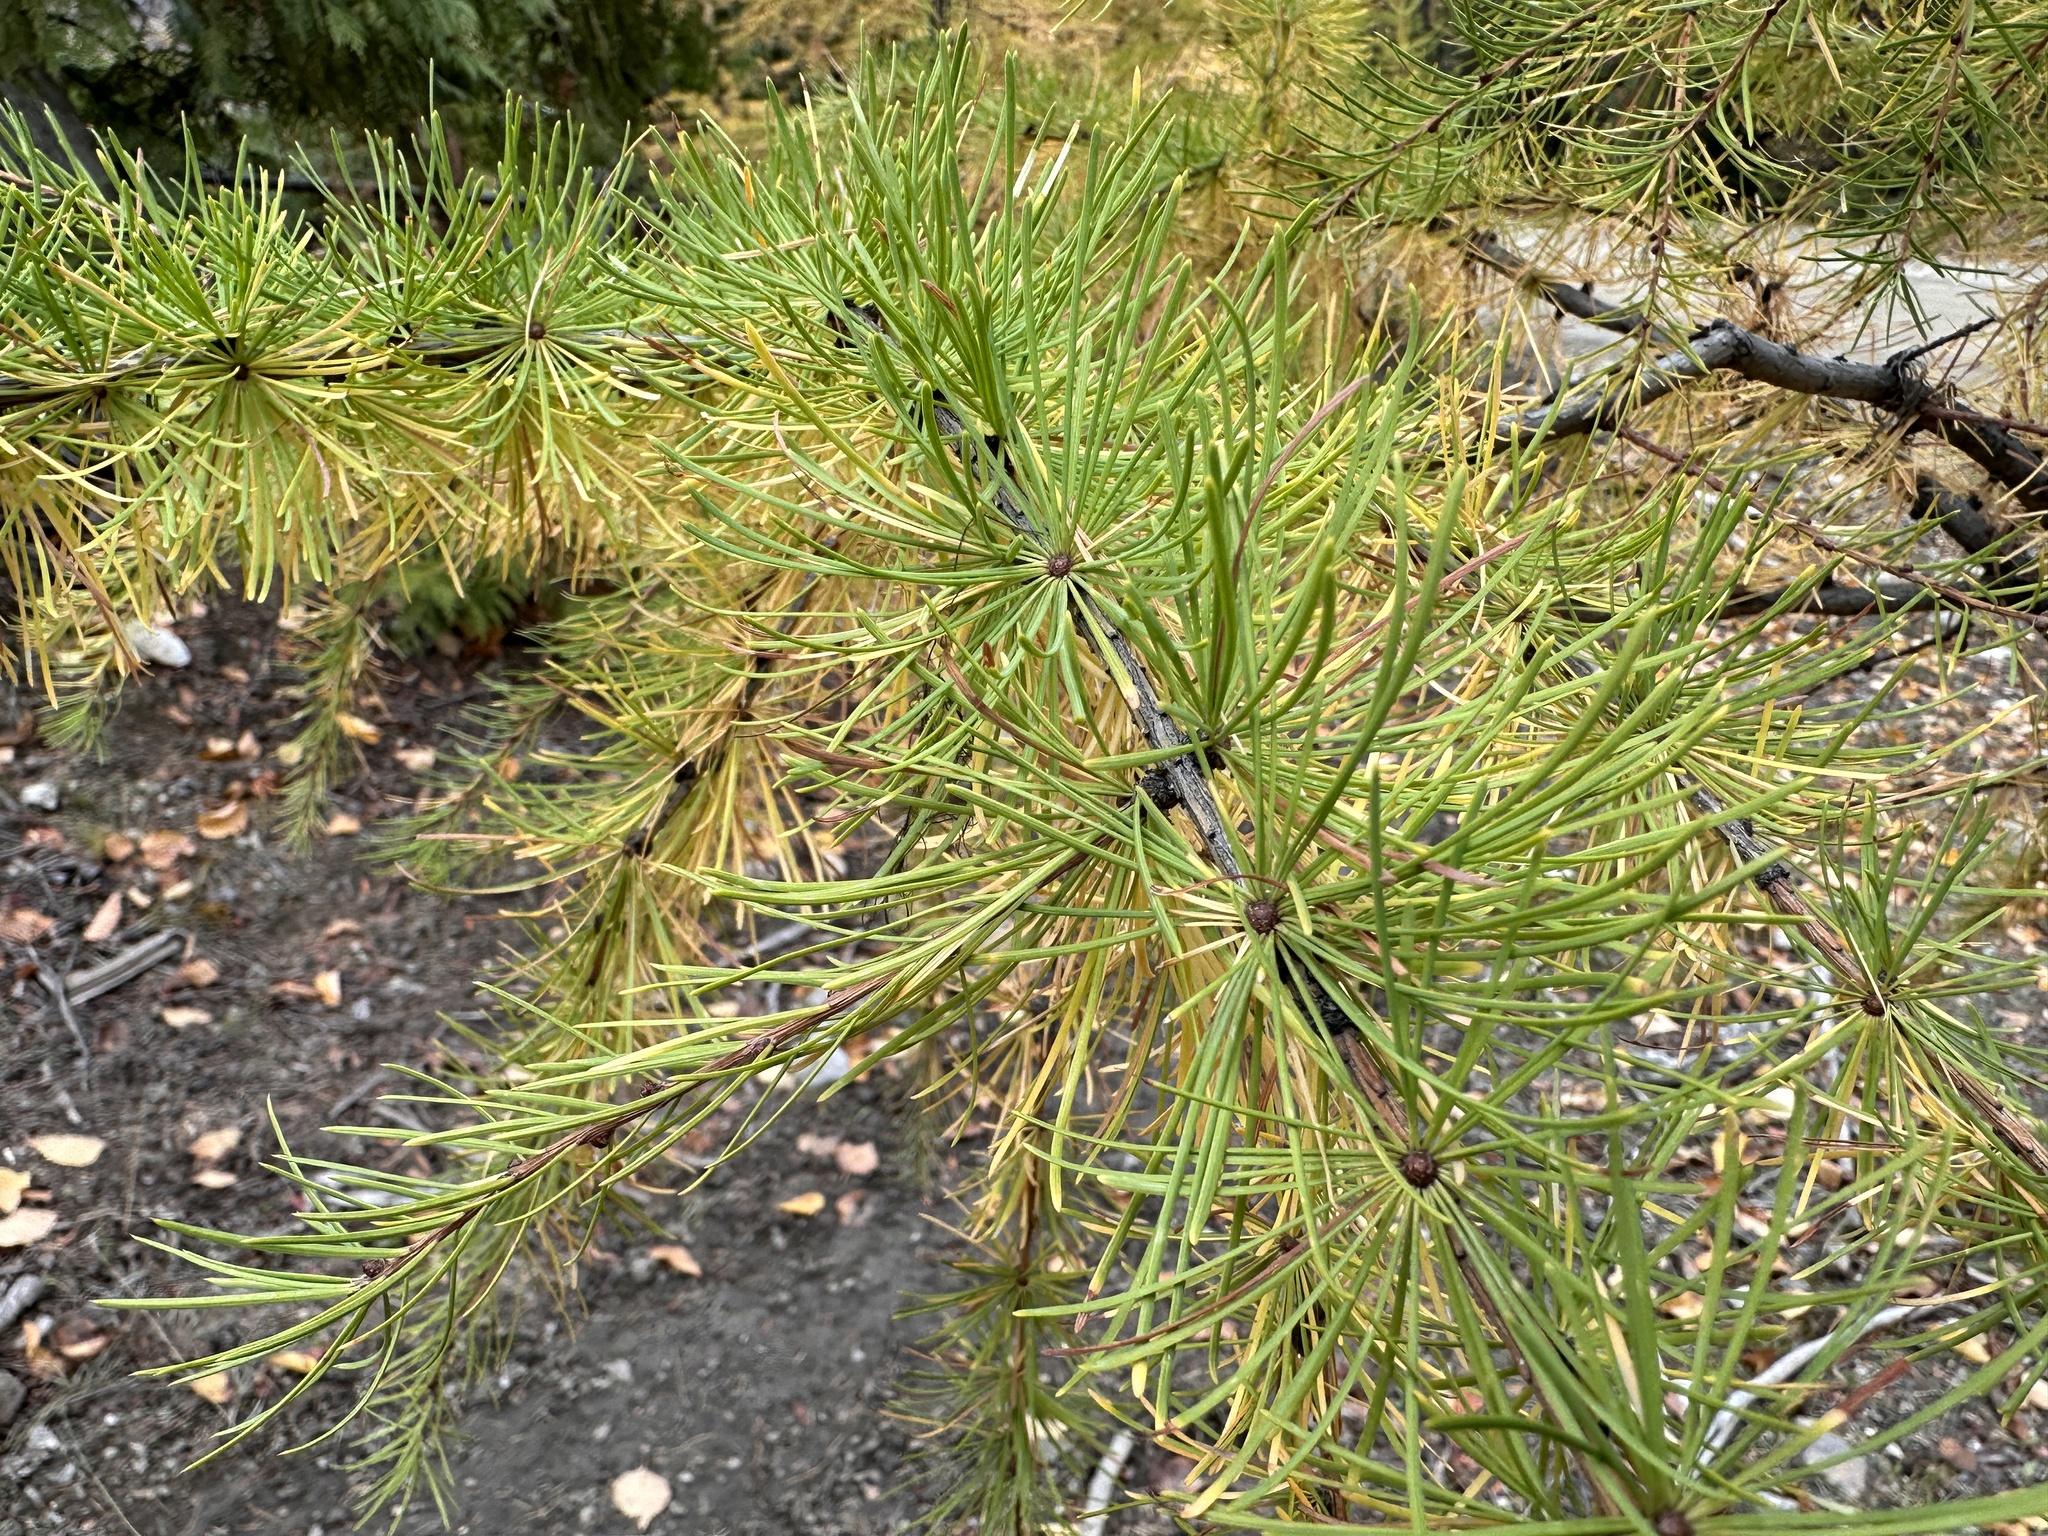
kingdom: Plantae
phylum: Tracheophyta
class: Pinopsida
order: Pinales
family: Pinaceae
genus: Larix
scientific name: Larix occidentalis
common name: Western larch
